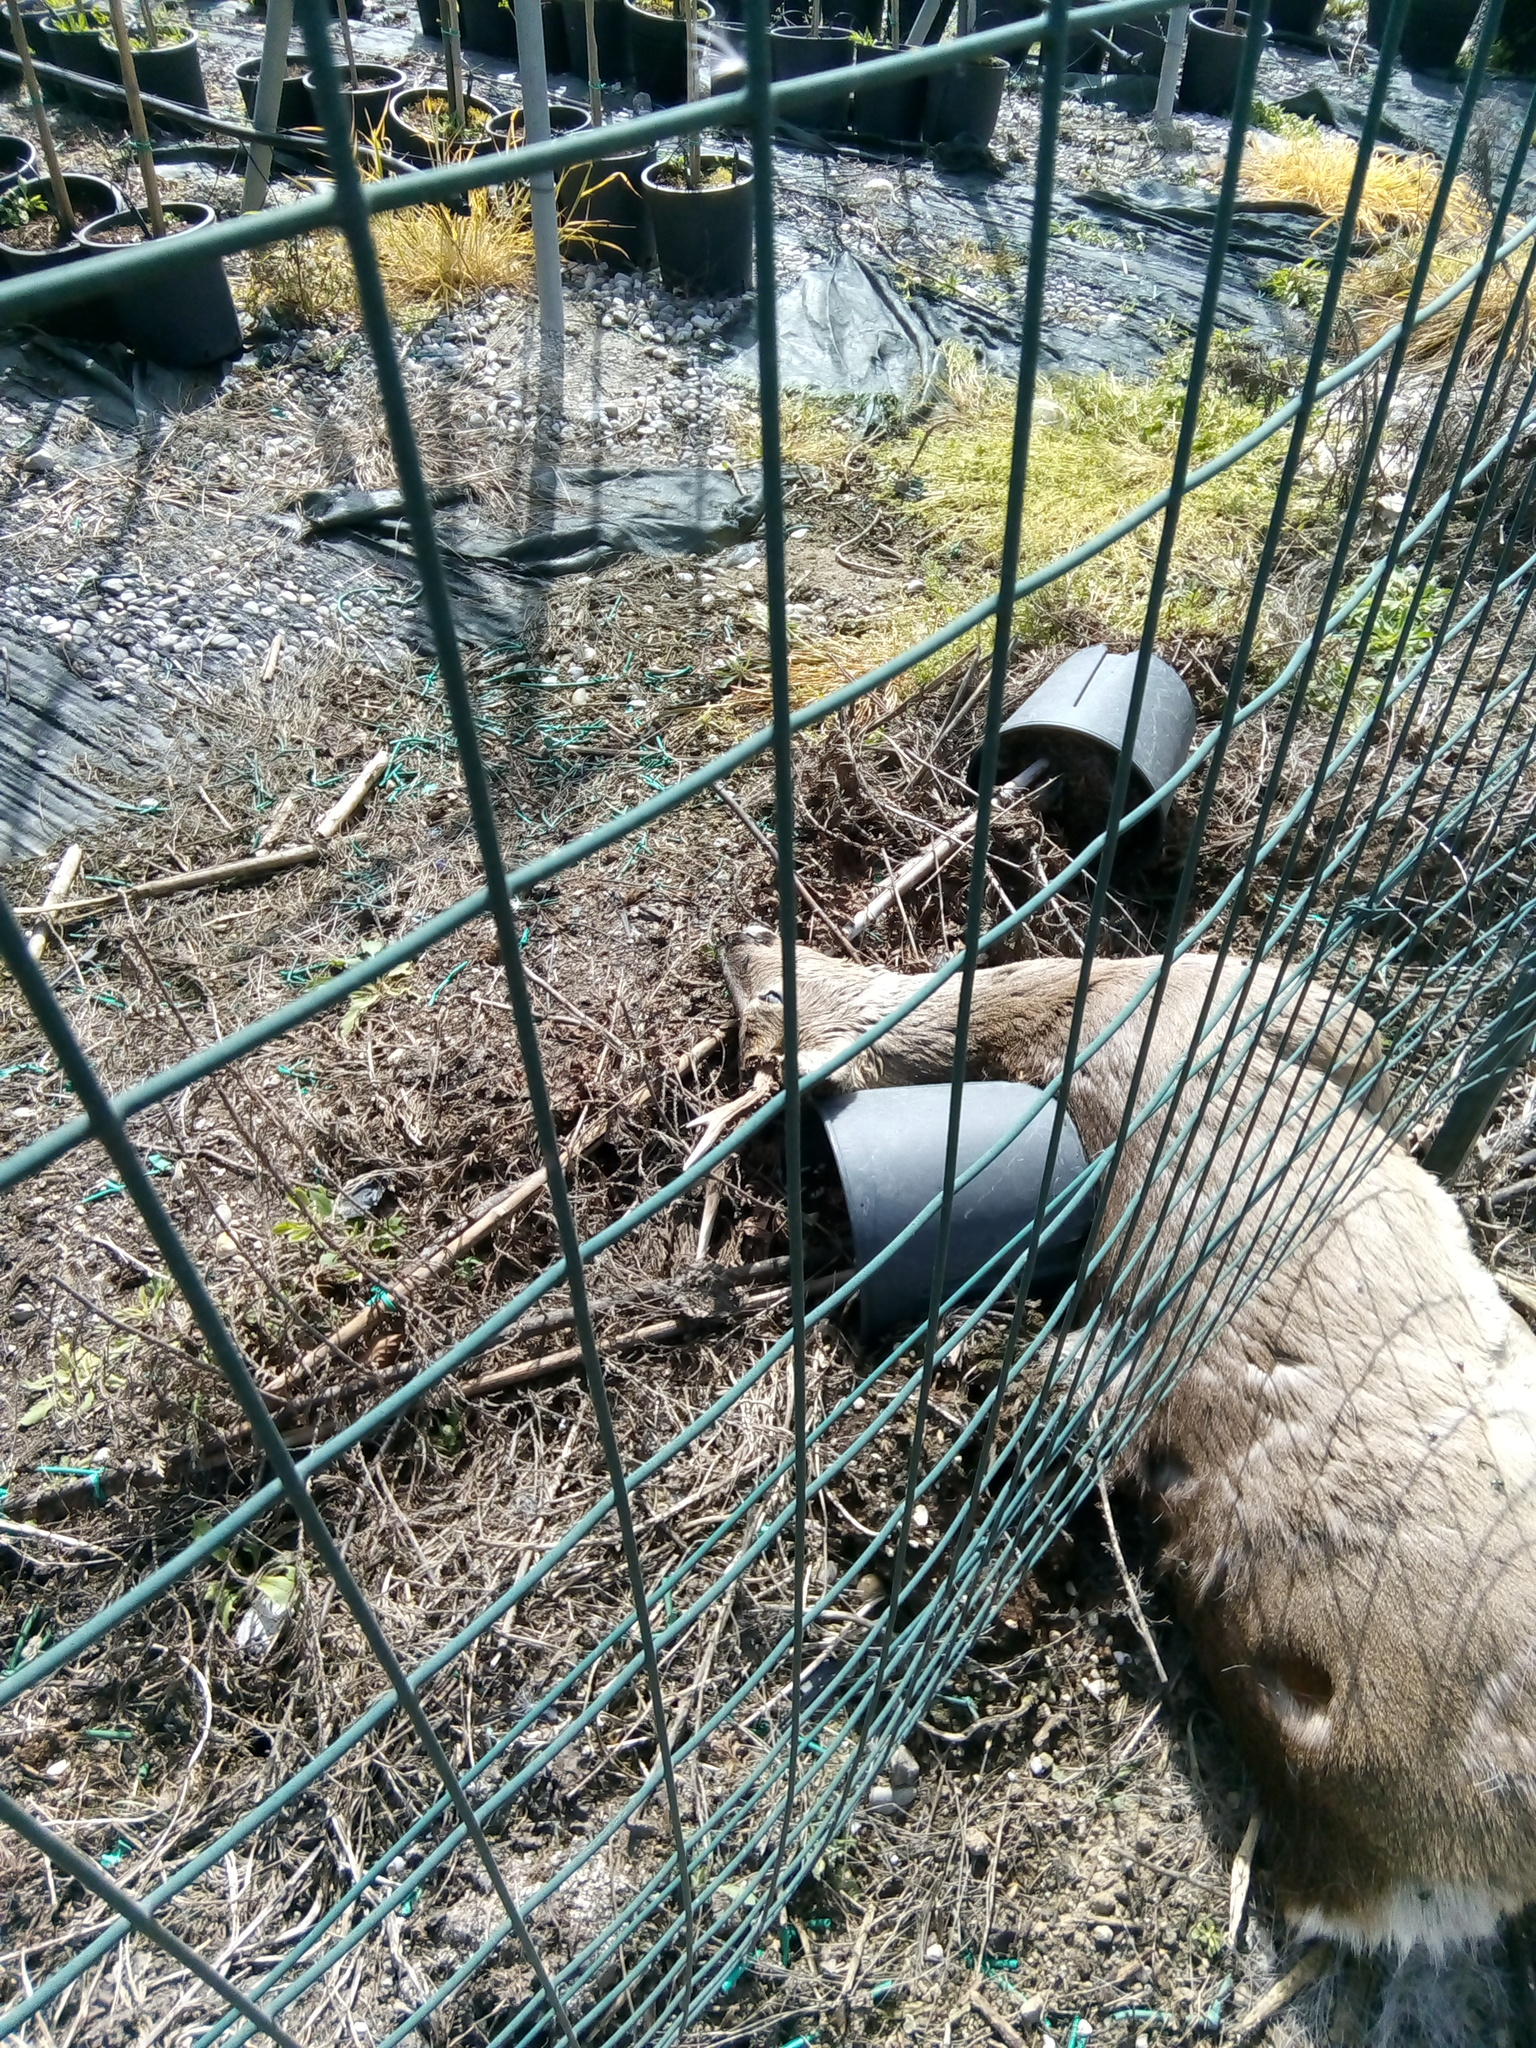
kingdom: Animalia
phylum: Chordata
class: Mammalia
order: Artiodactyla
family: Cervidae
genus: Capreolus
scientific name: Capreolus capreolus
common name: Western roe deer
